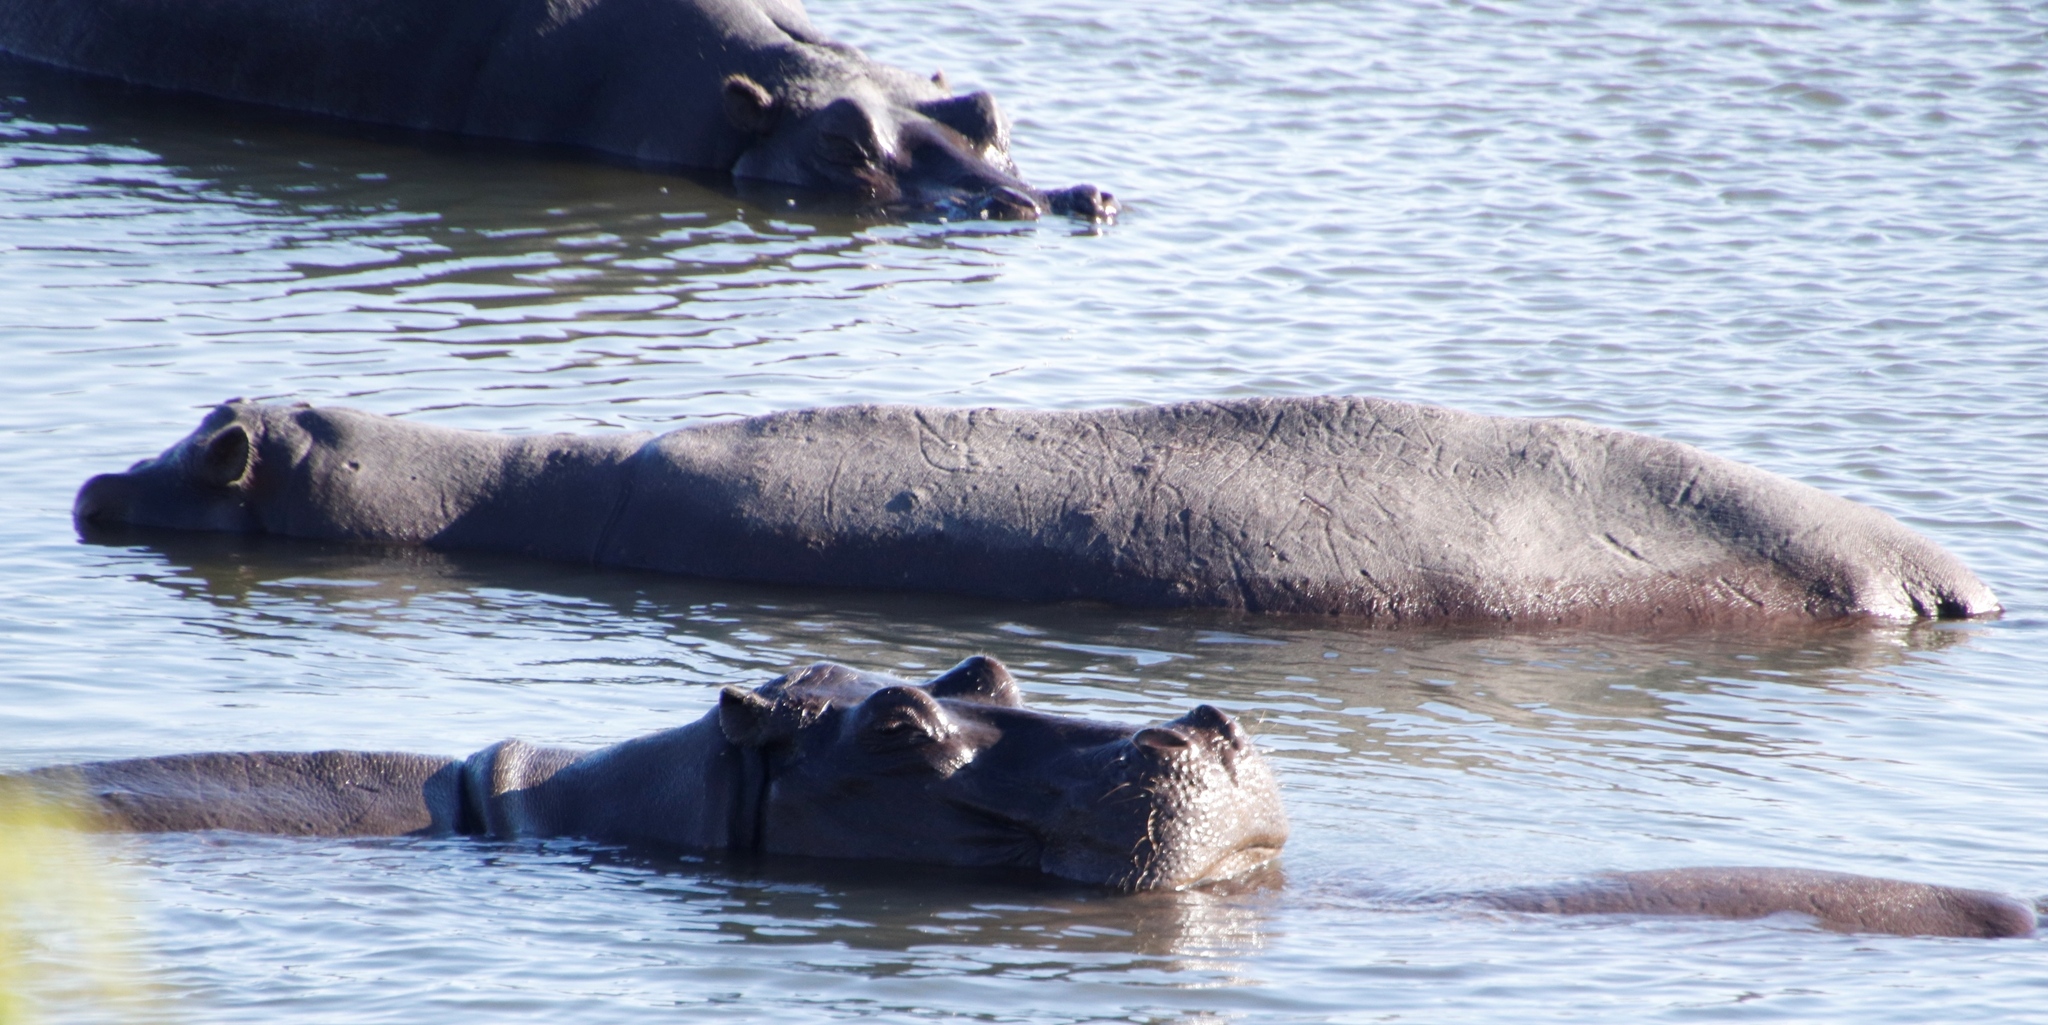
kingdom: Animalia
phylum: Chordata
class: Mammalia
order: Artiodactyla
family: Hippopotamidae
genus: Hippopotamus
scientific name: Hippopotamus amphibius
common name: Common hippopotamus
